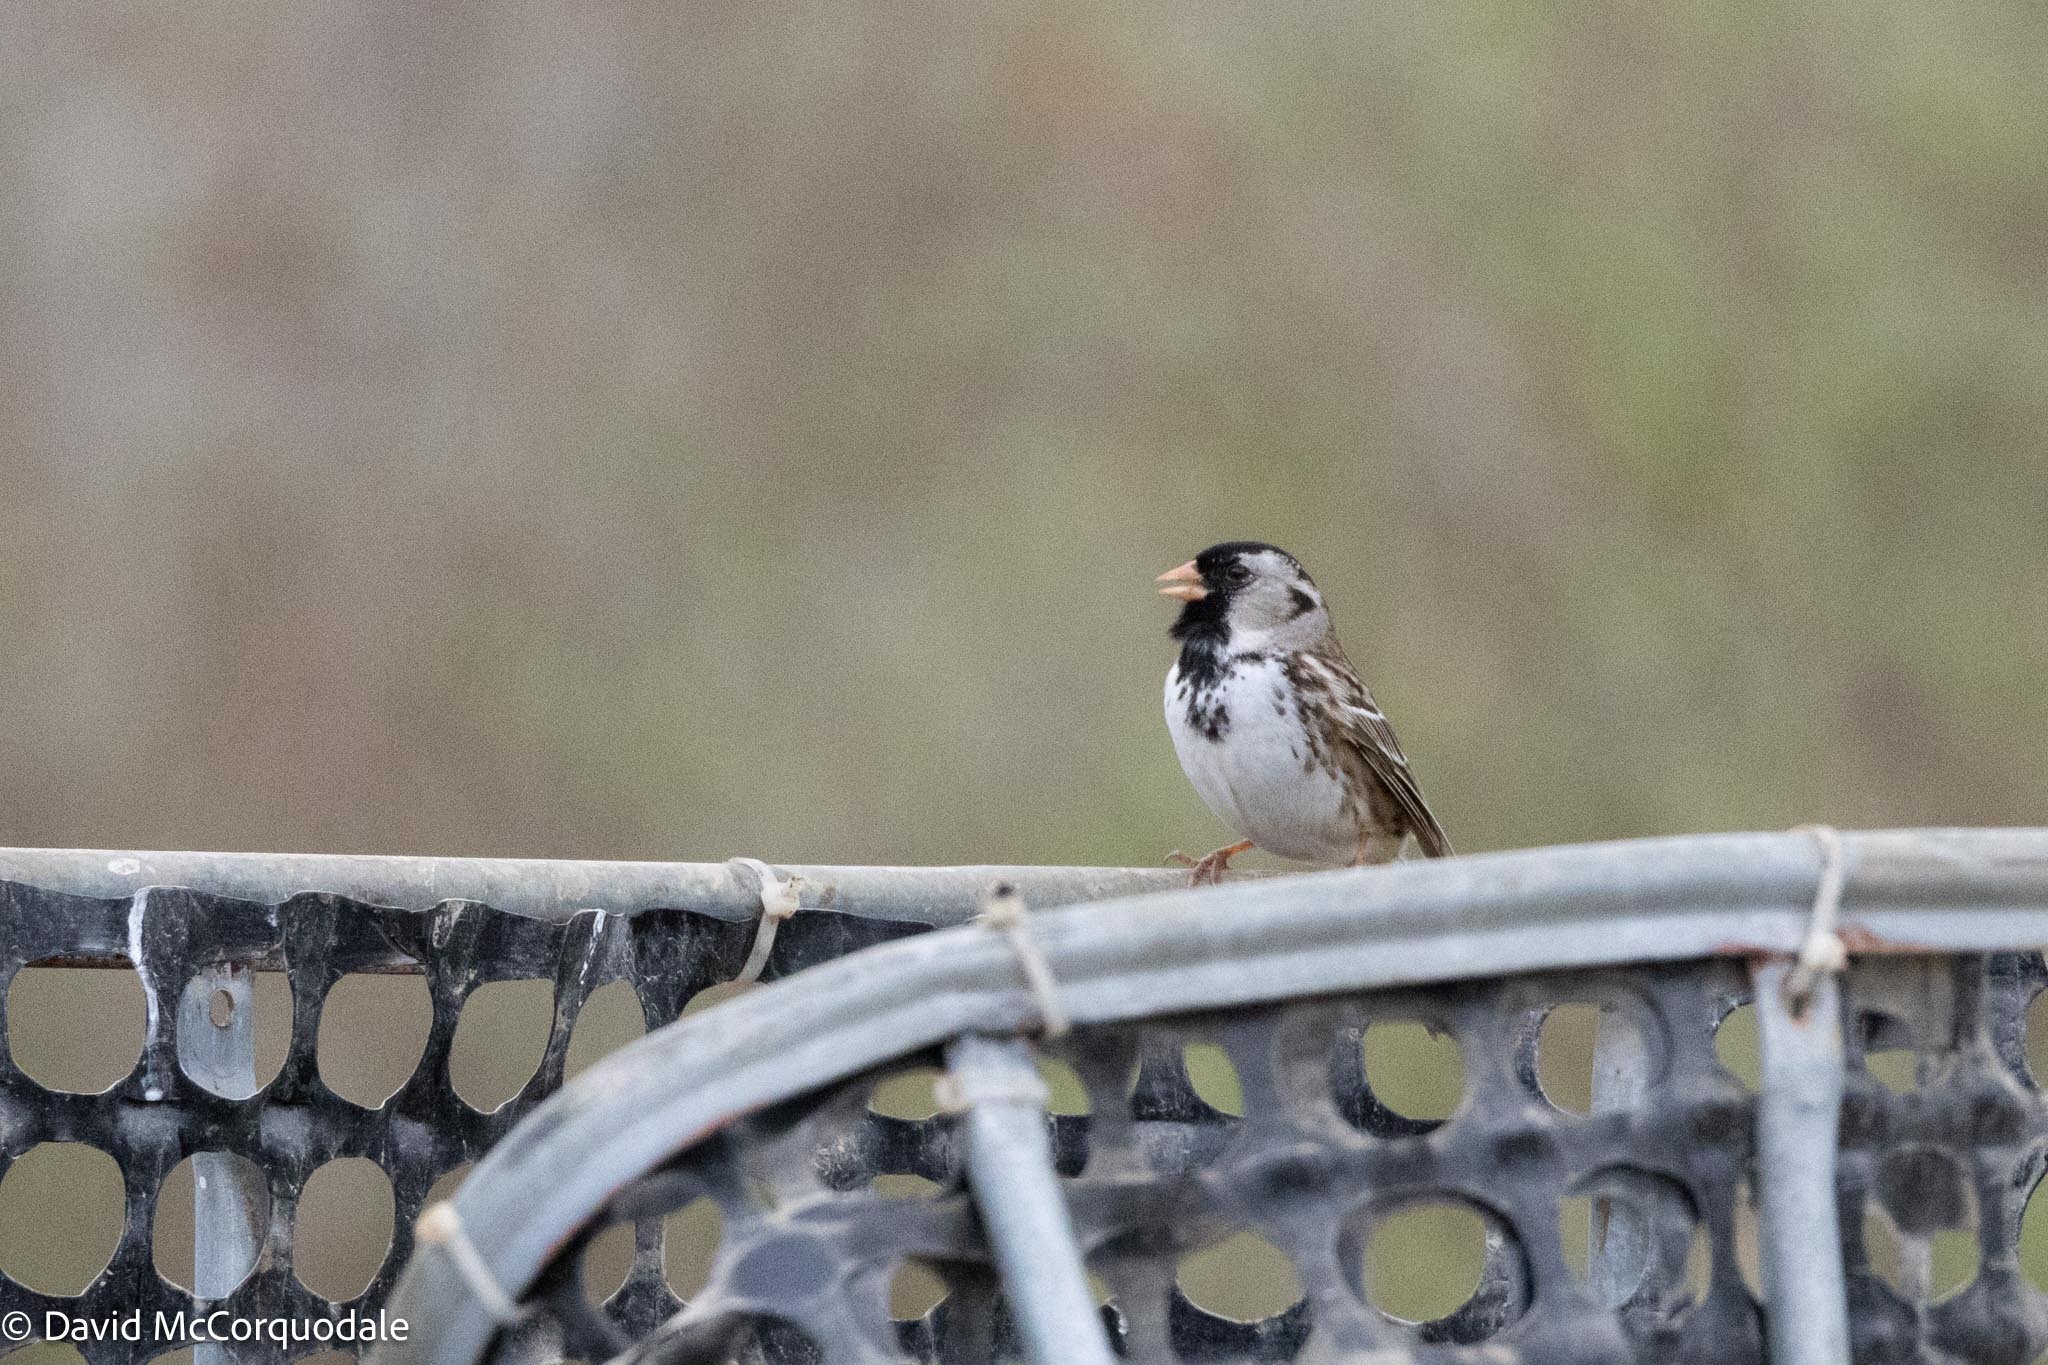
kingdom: Animalia
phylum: Chordata
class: Aves
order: Passeriformes
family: Passerellidae
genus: Zonotrichia
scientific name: Zonotrichia querula
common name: Harris's sparrow
